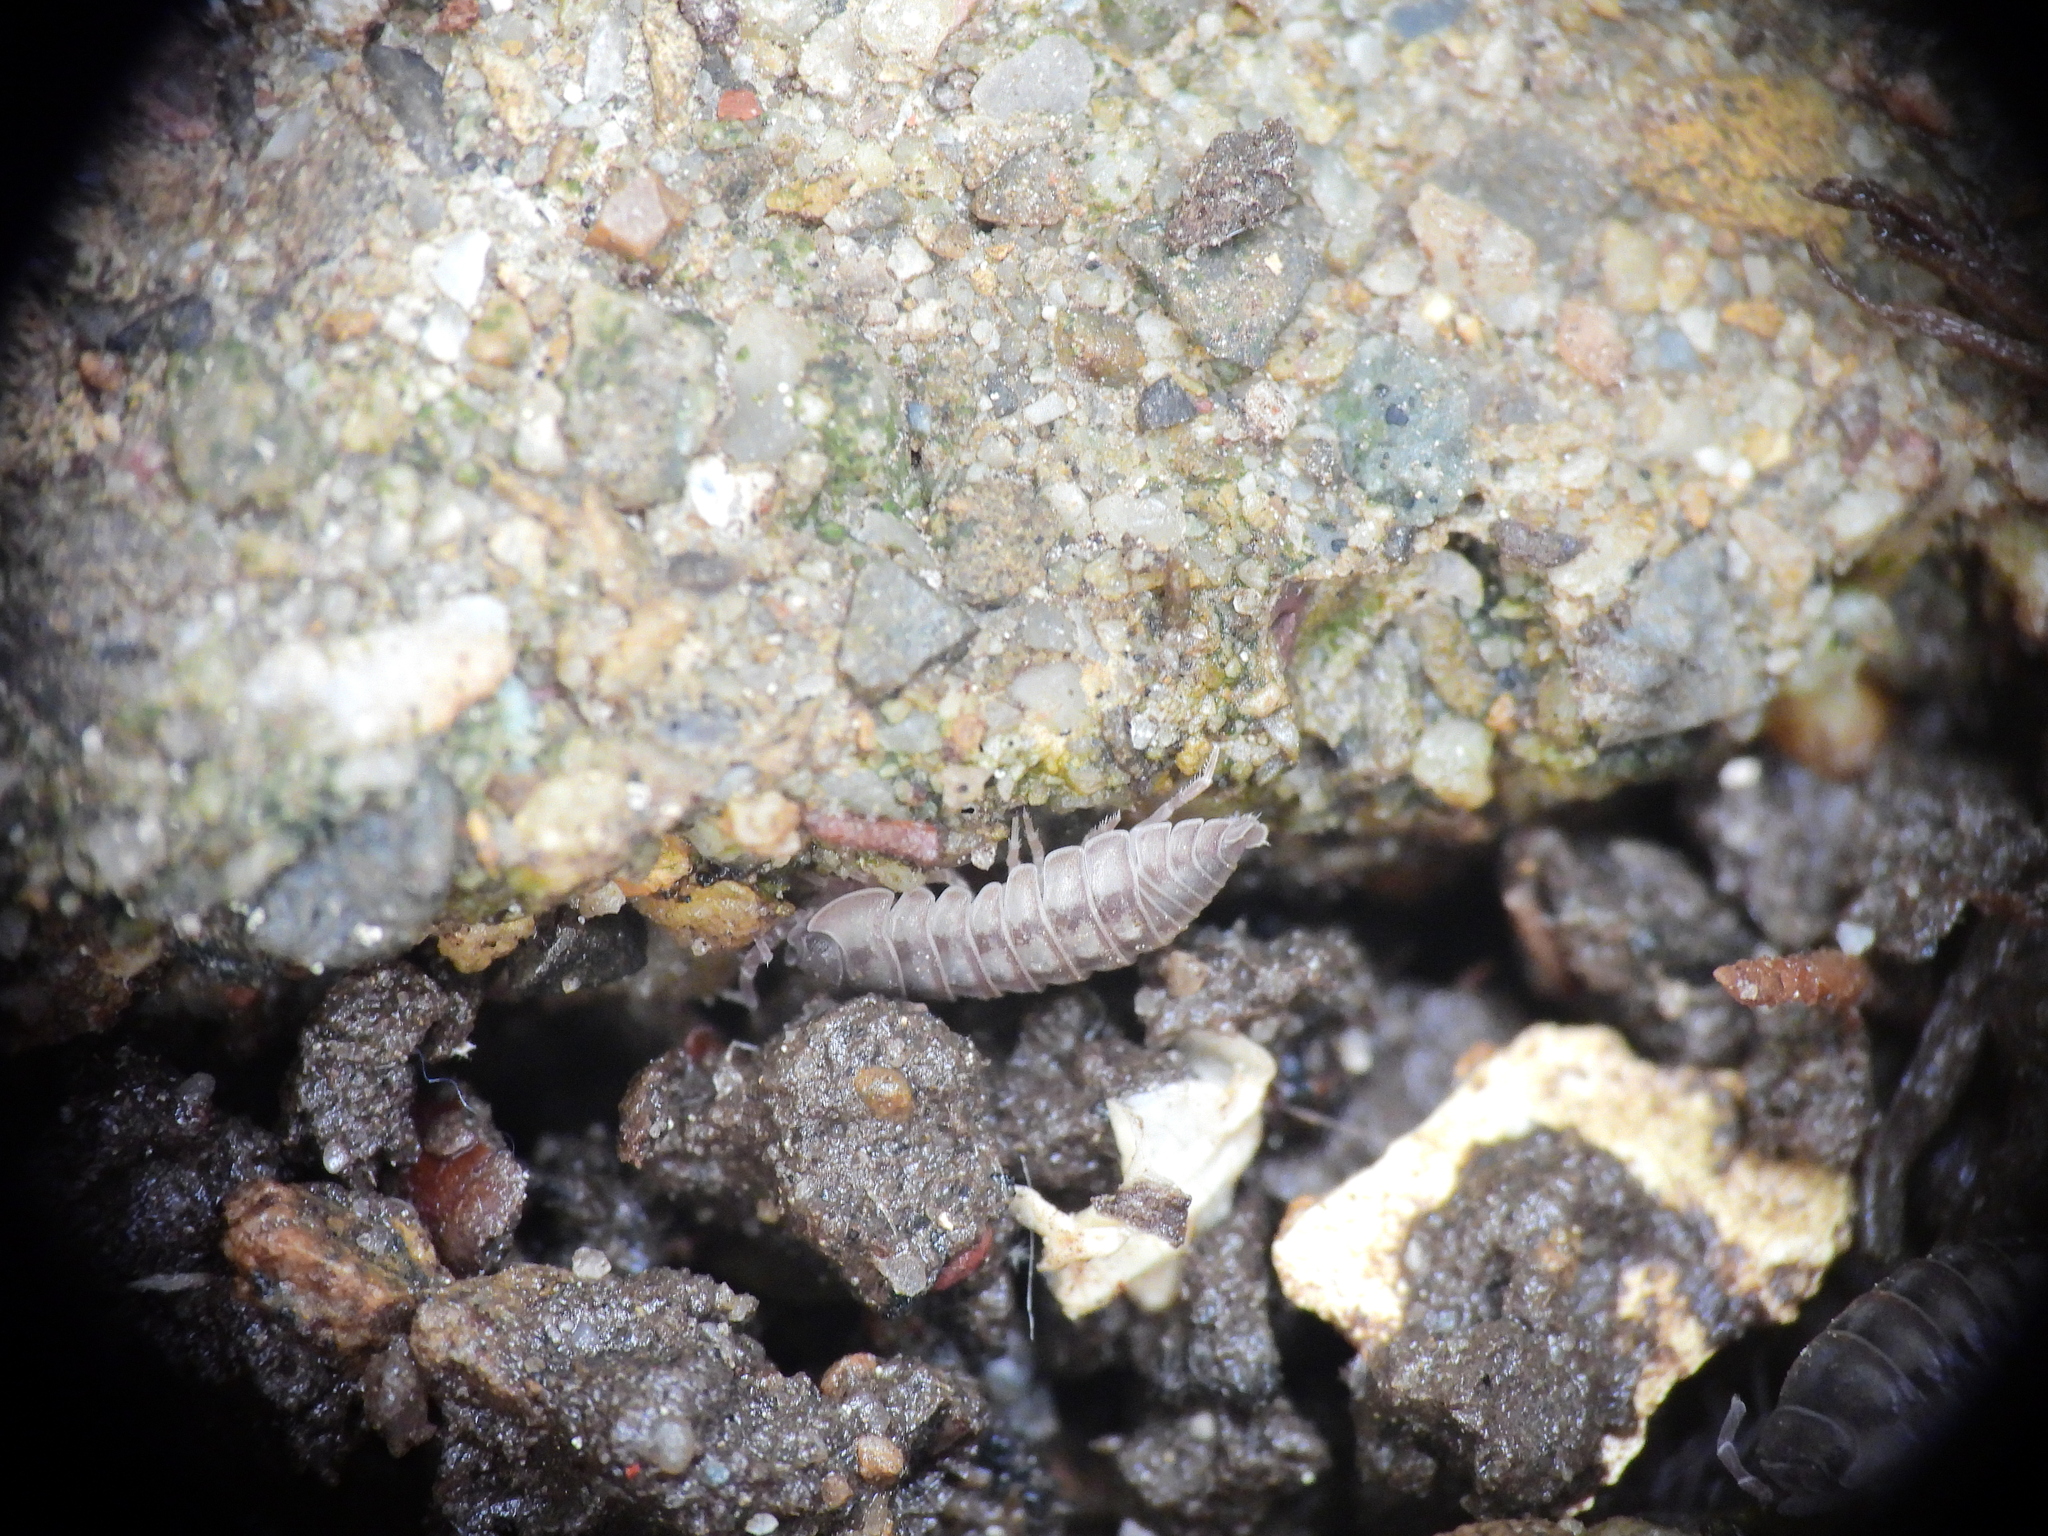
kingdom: Animalia
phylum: Arthropoda
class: Malacostraca
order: Isopoda
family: Armadillidiidae
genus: Armadillidium
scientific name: Armadillidium nasatum
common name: Isopod
